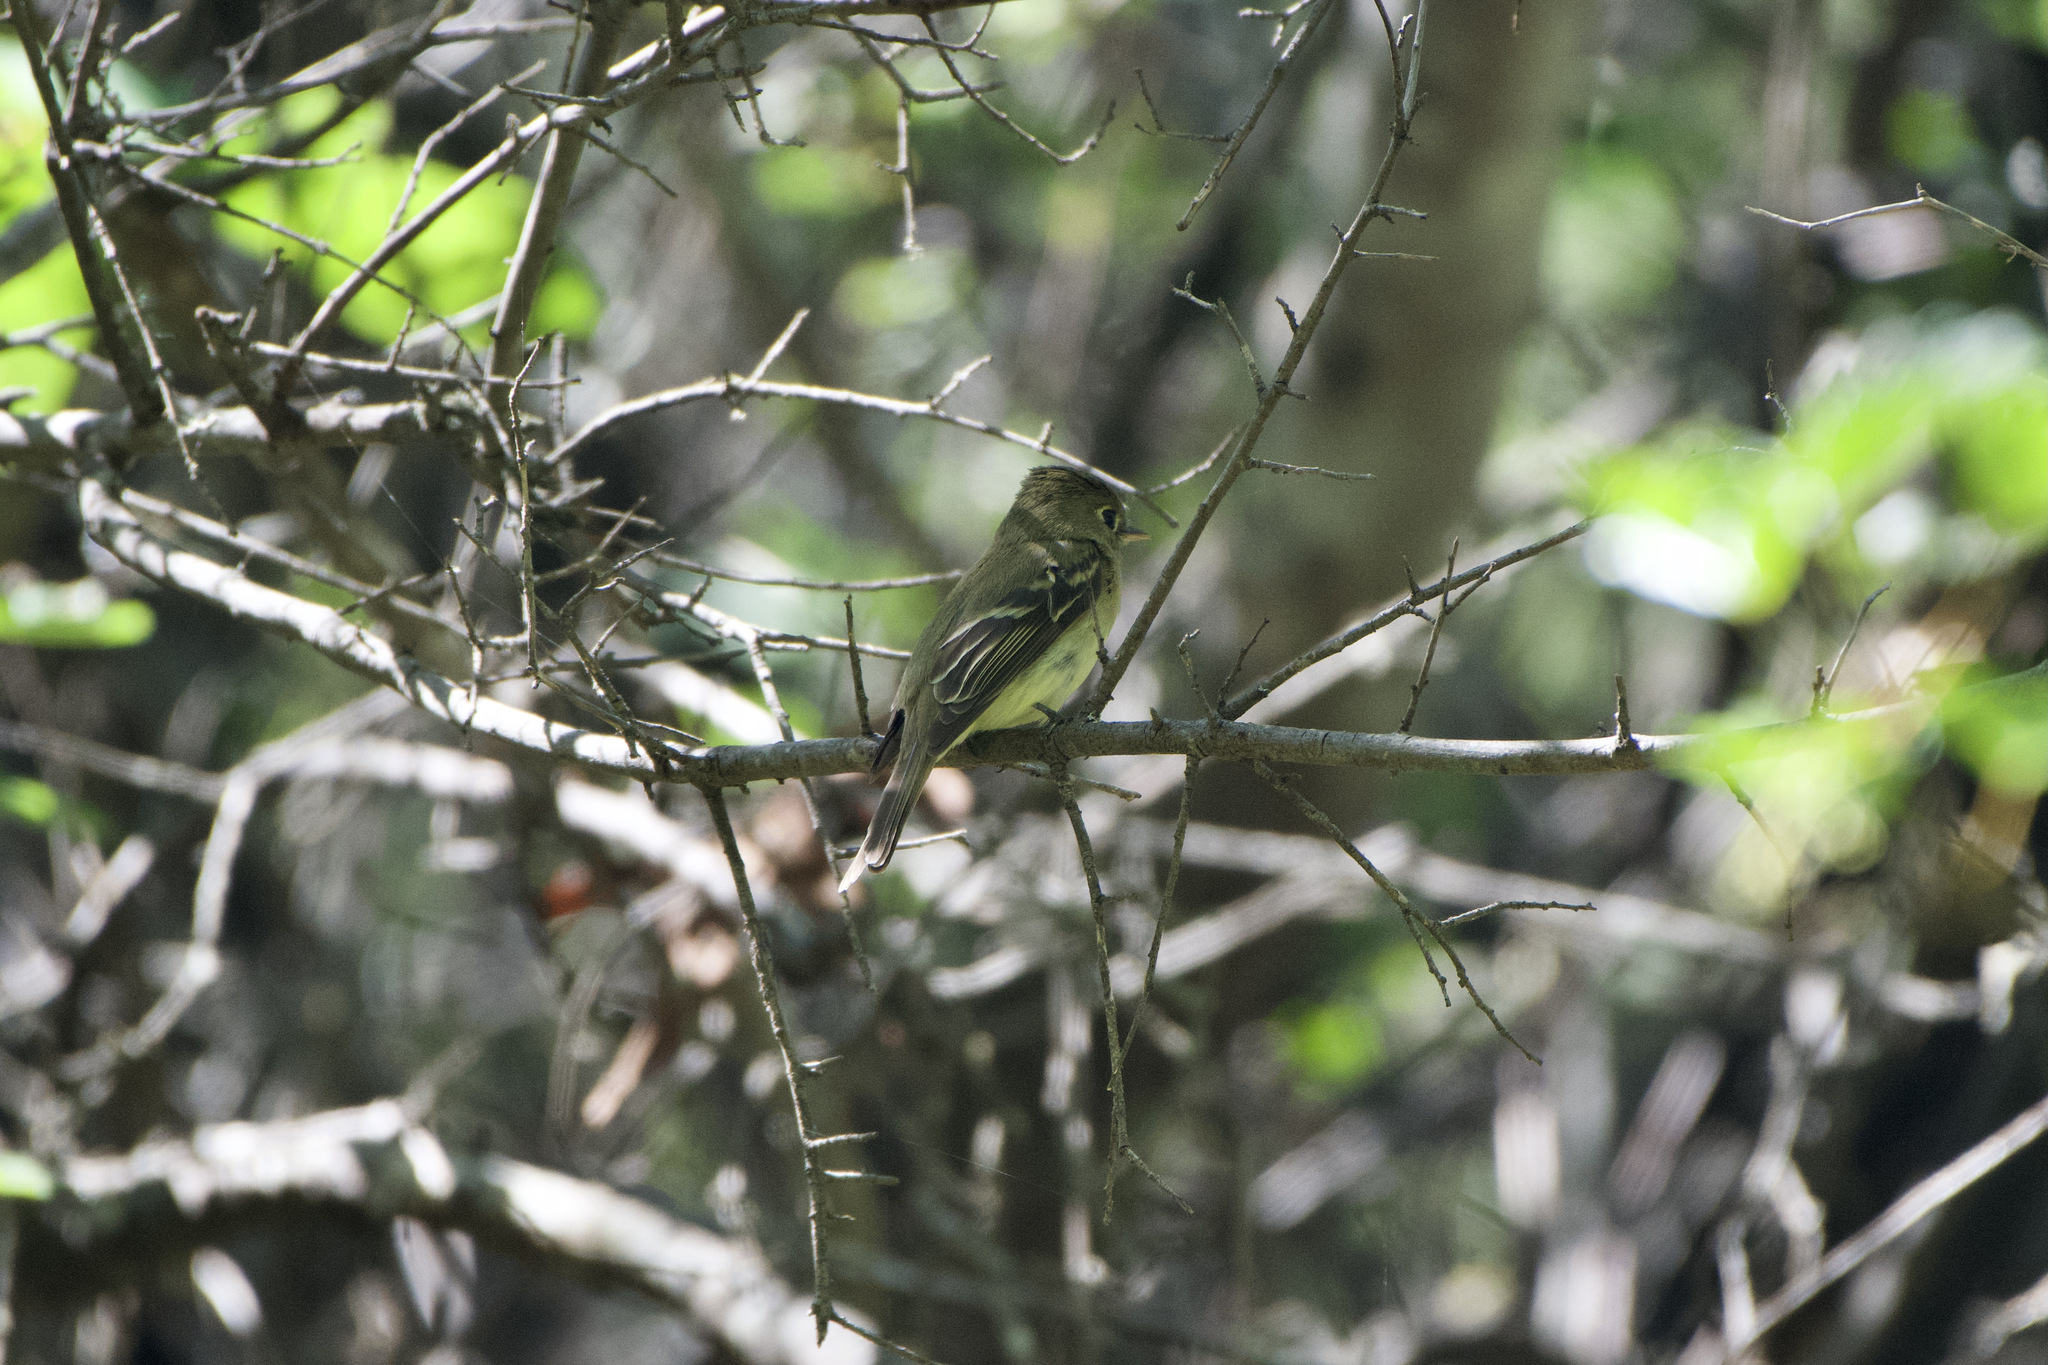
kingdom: Animalia
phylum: Chordata
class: Aves
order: Passeriformes
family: Tyrannidae
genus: Empidonax
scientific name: Empidonax difficilis
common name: Pacific-slope flycatcher
